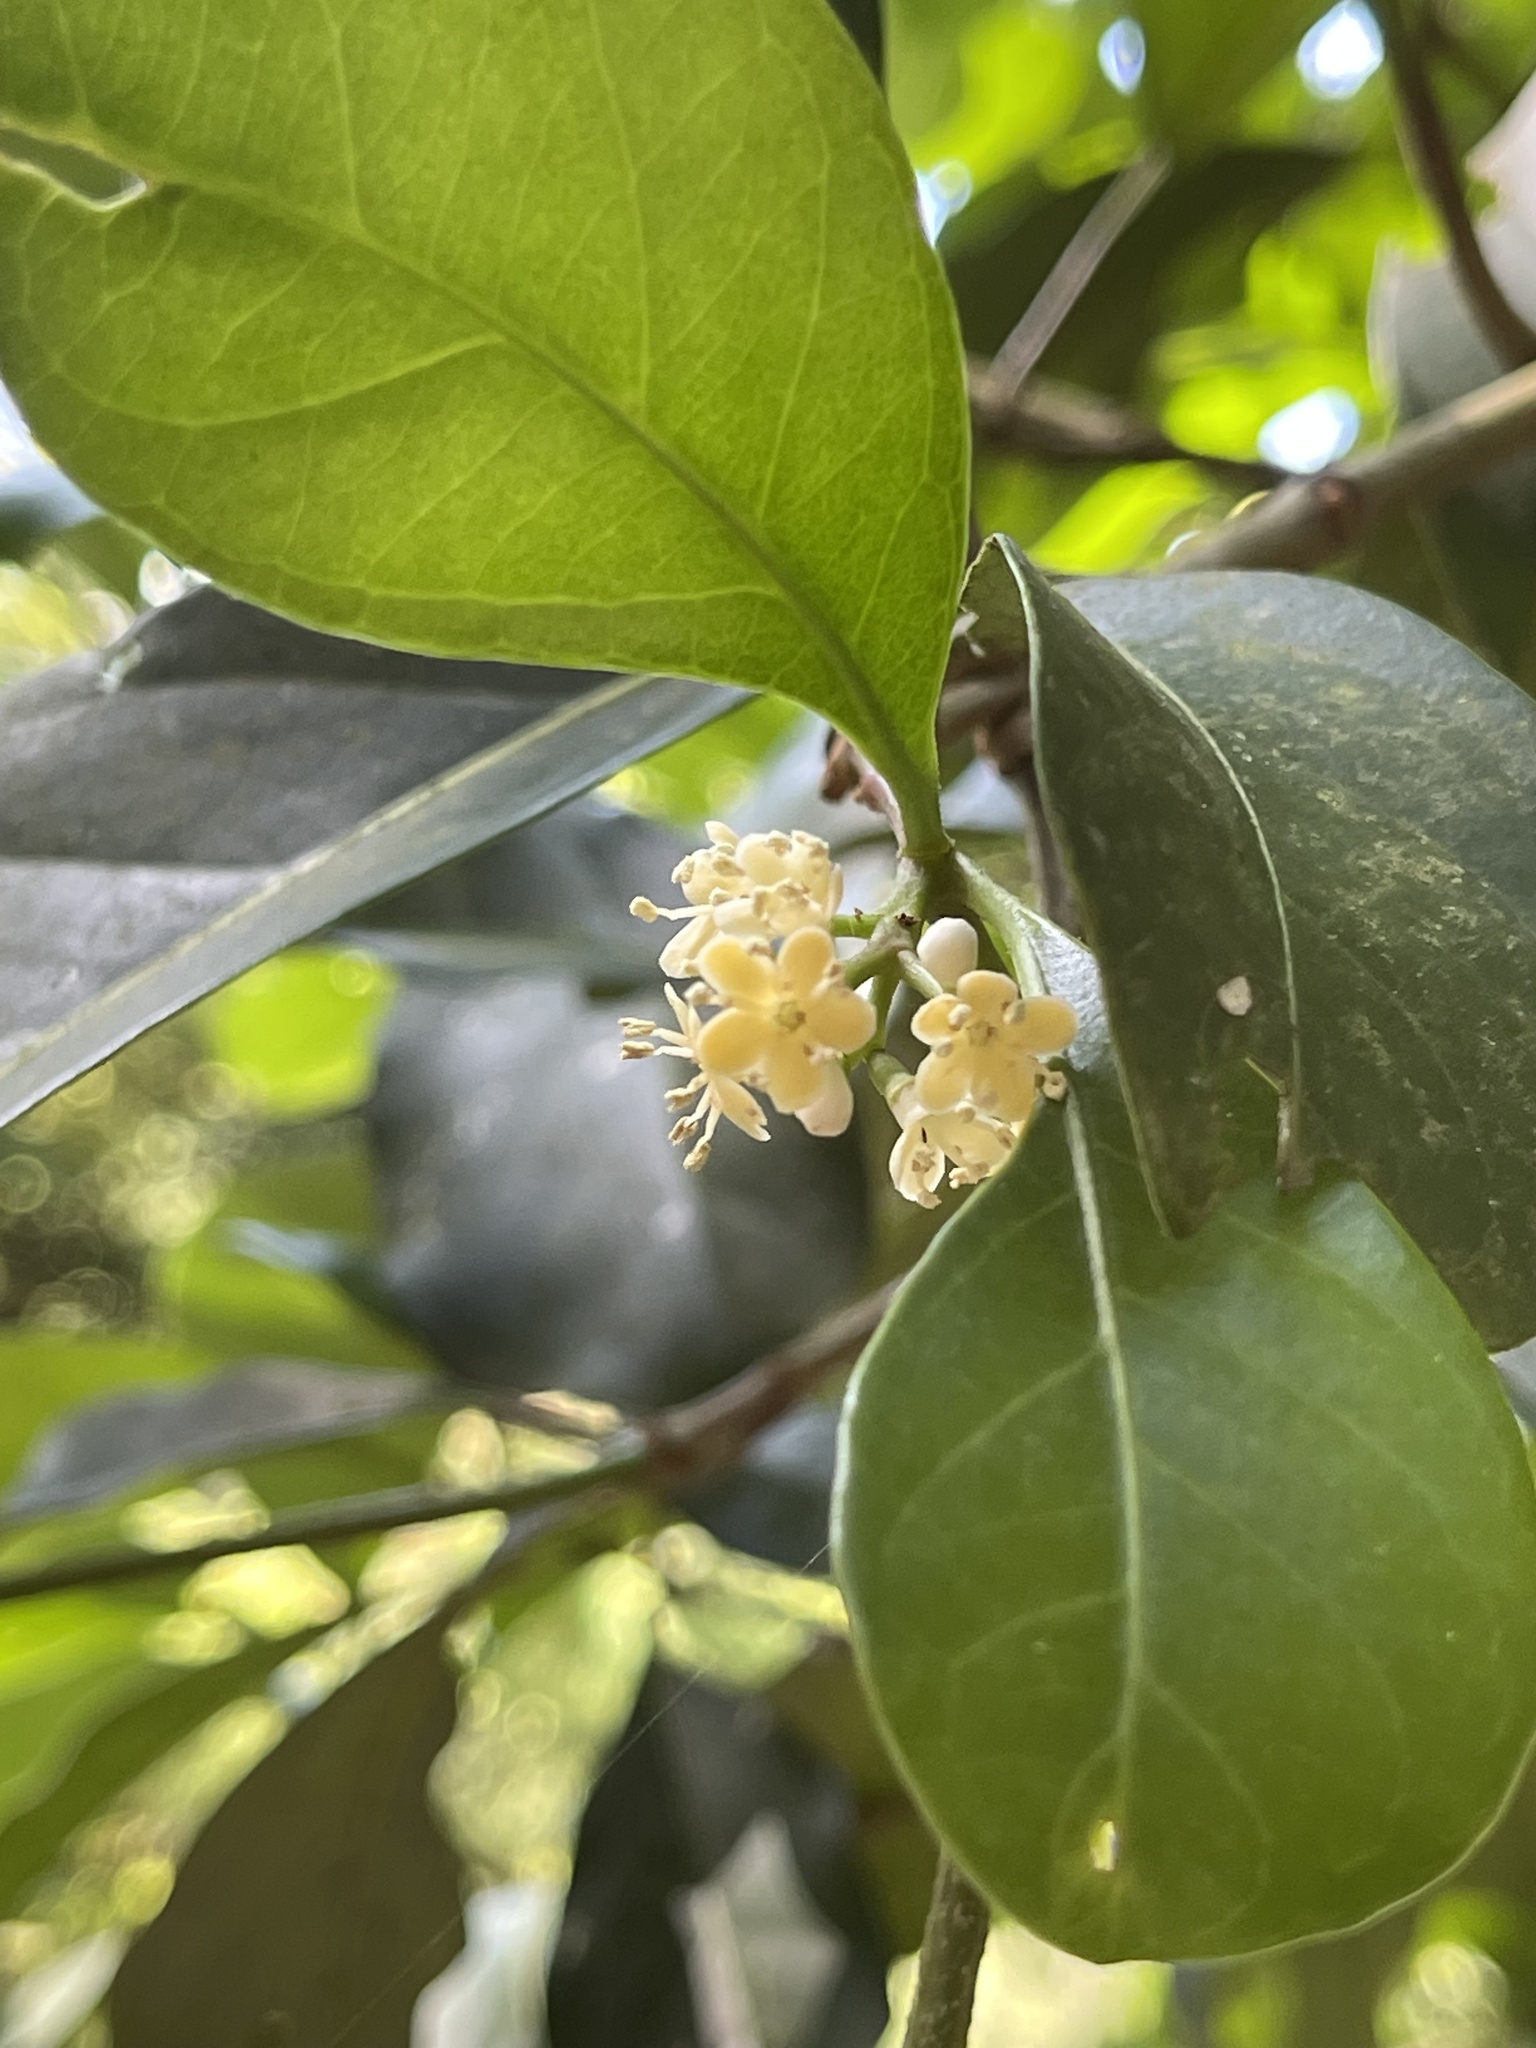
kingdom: Plantae
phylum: Tracheophyta
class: Magnoliopsida
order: Apiales
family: Pittosporaceae
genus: Pittosporum
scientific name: Pittosporum glabratum
